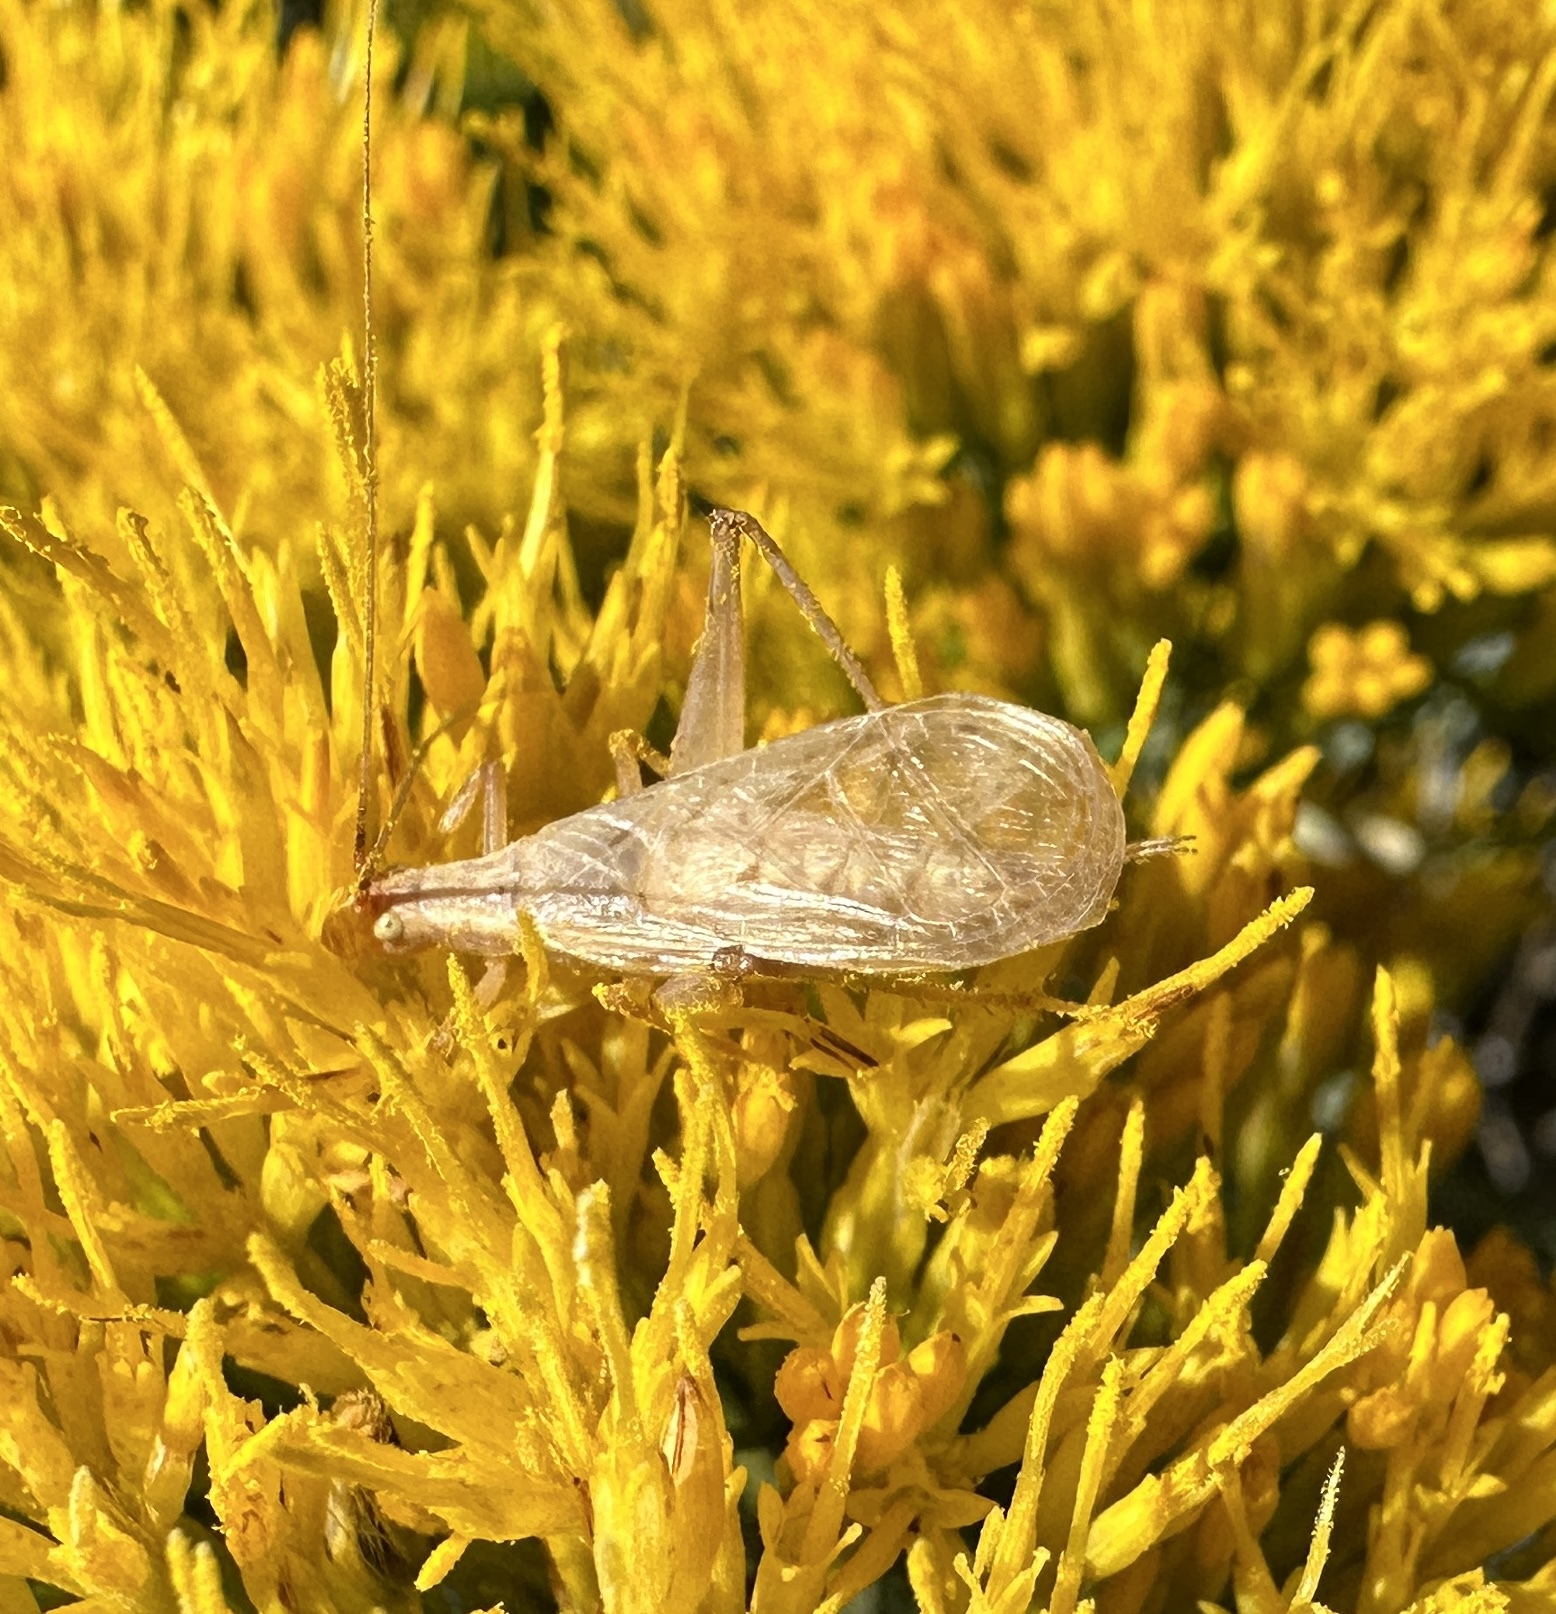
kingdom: Animalia
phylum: Arthropoda
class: Insecta
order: Orthoptera
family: Gryllidae
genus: Oecanthus
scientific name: Oecanthus californicus
